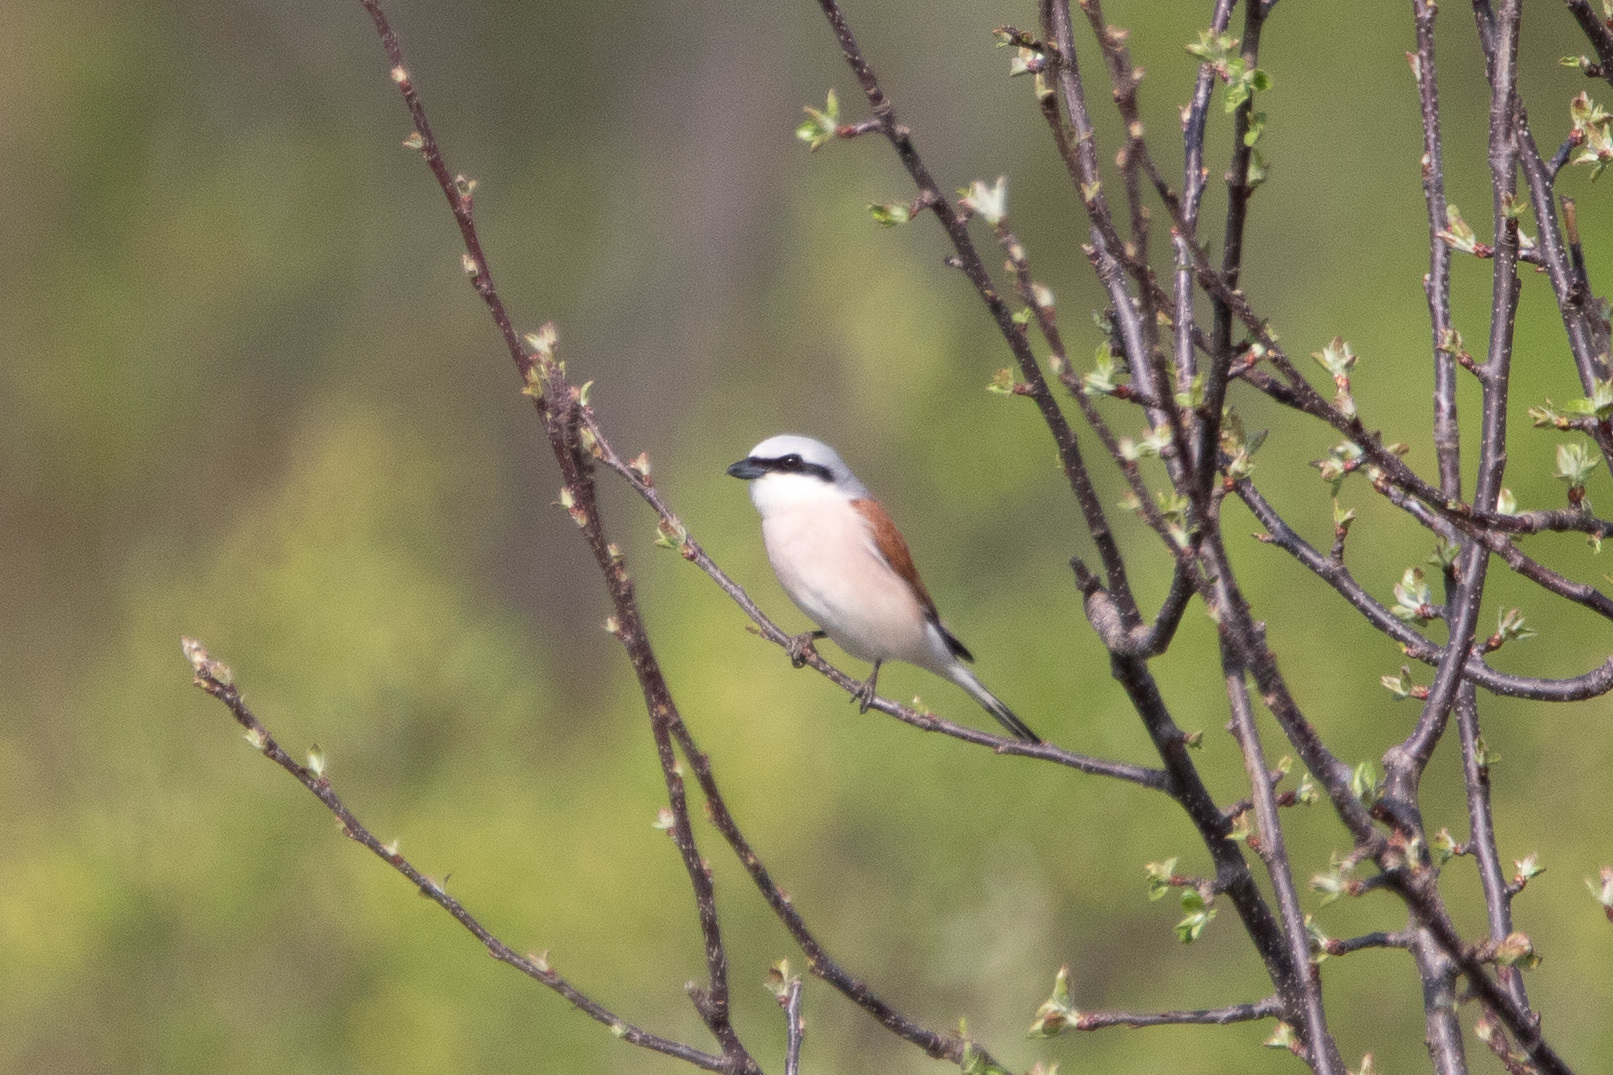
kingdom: Animalia
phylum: Chordata
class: Aves
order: Passeriformes
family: Laniidae
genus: Lanius
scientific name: Lanius collurio
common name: Red-backed shrike
